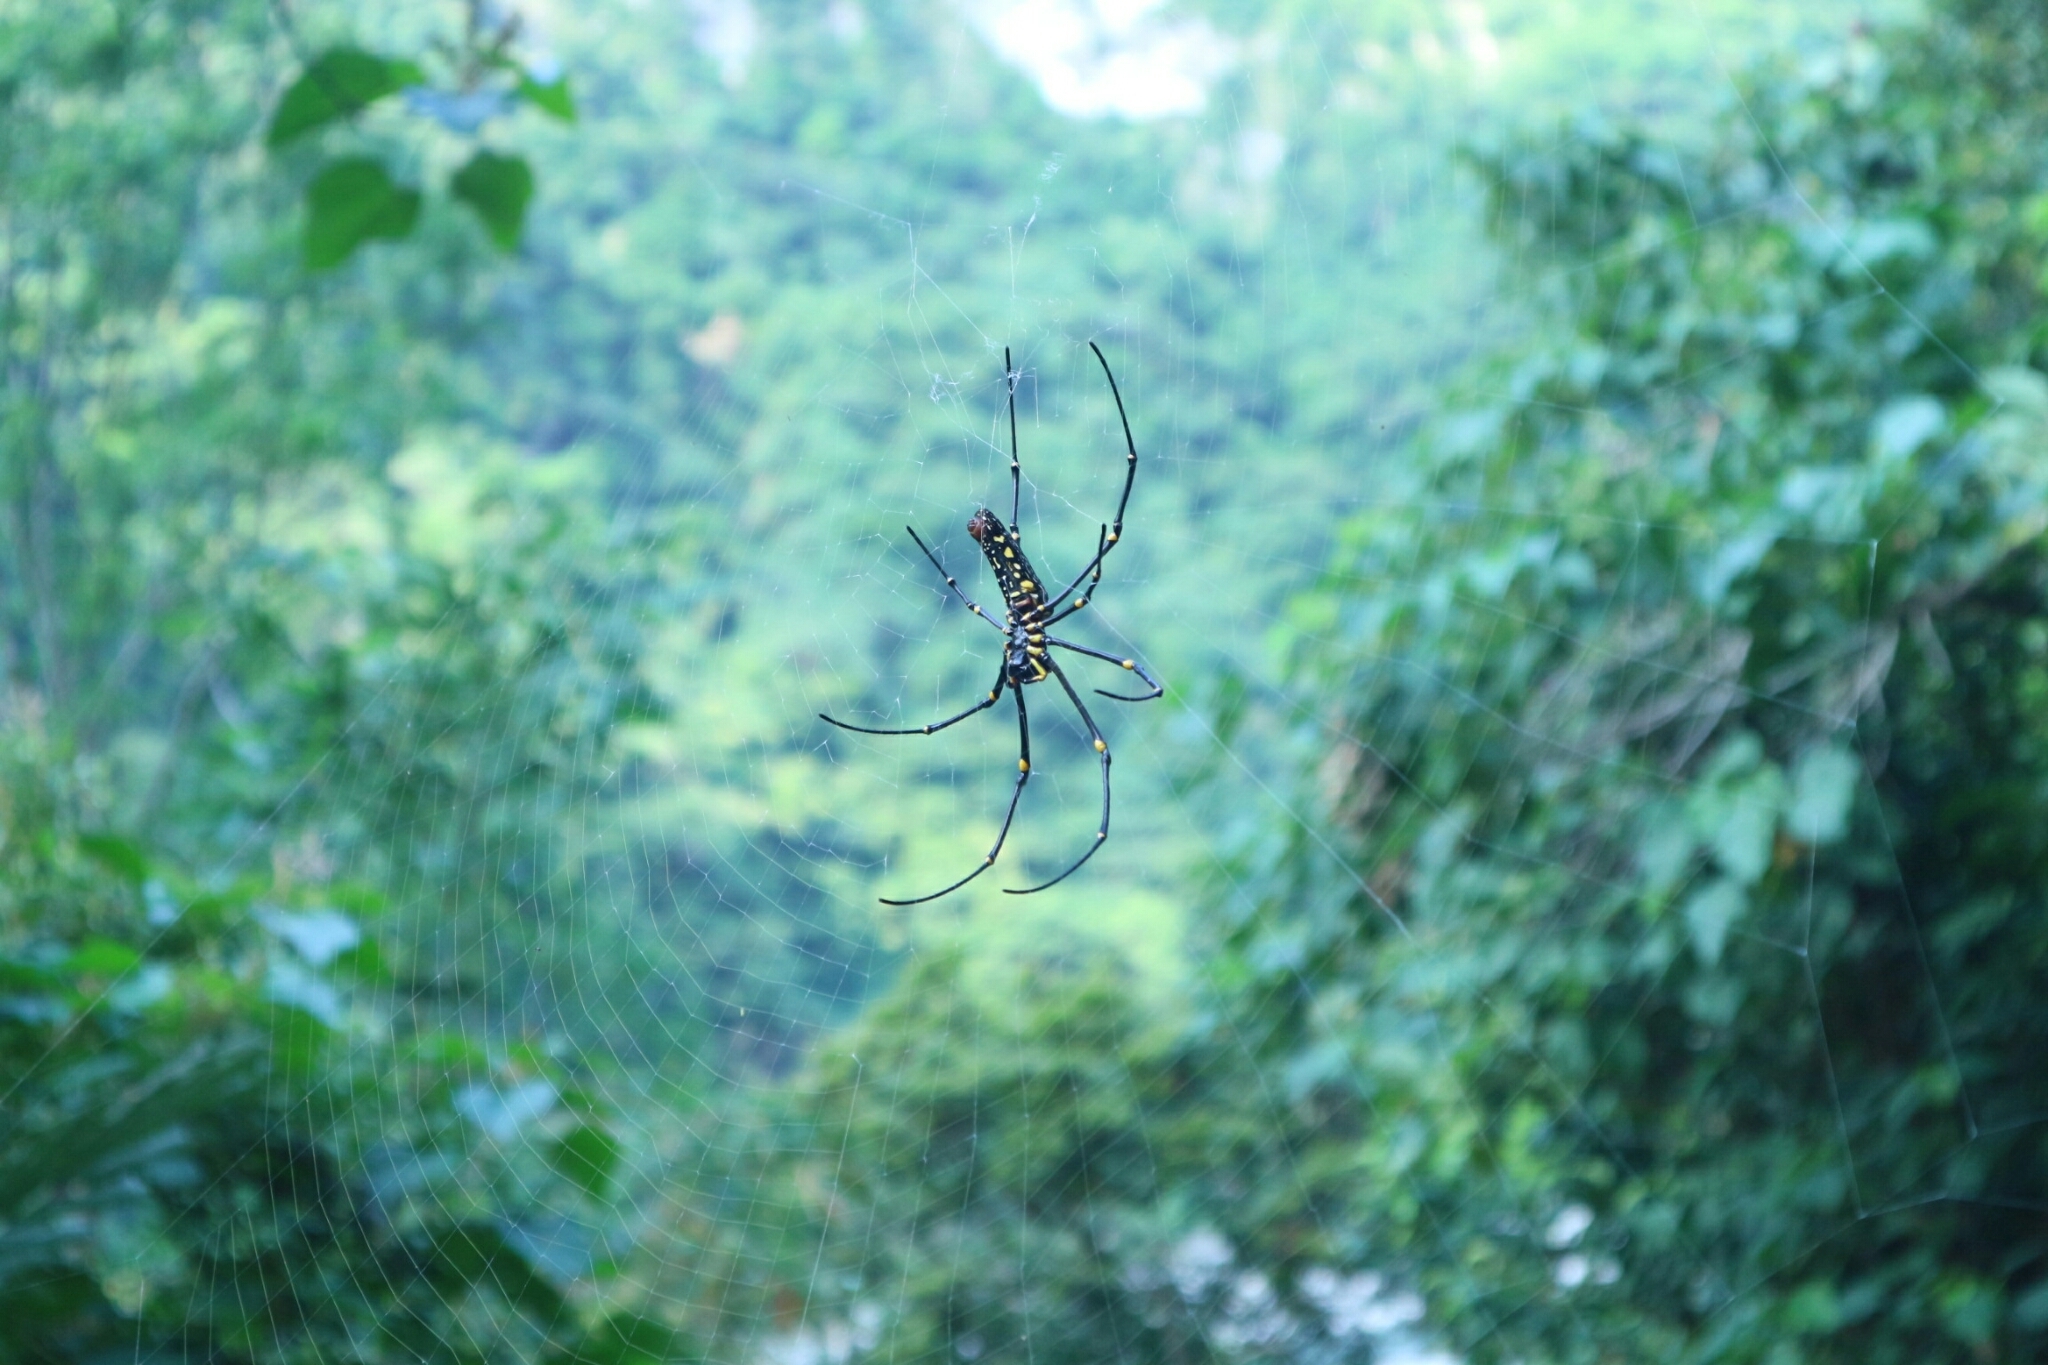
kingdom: Animalia
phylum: Arthropoda
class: Arachnida
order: Araneae
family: Araneidae
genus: Nephila
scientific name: Nephila pilipes
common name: Giant golden orb weaver
